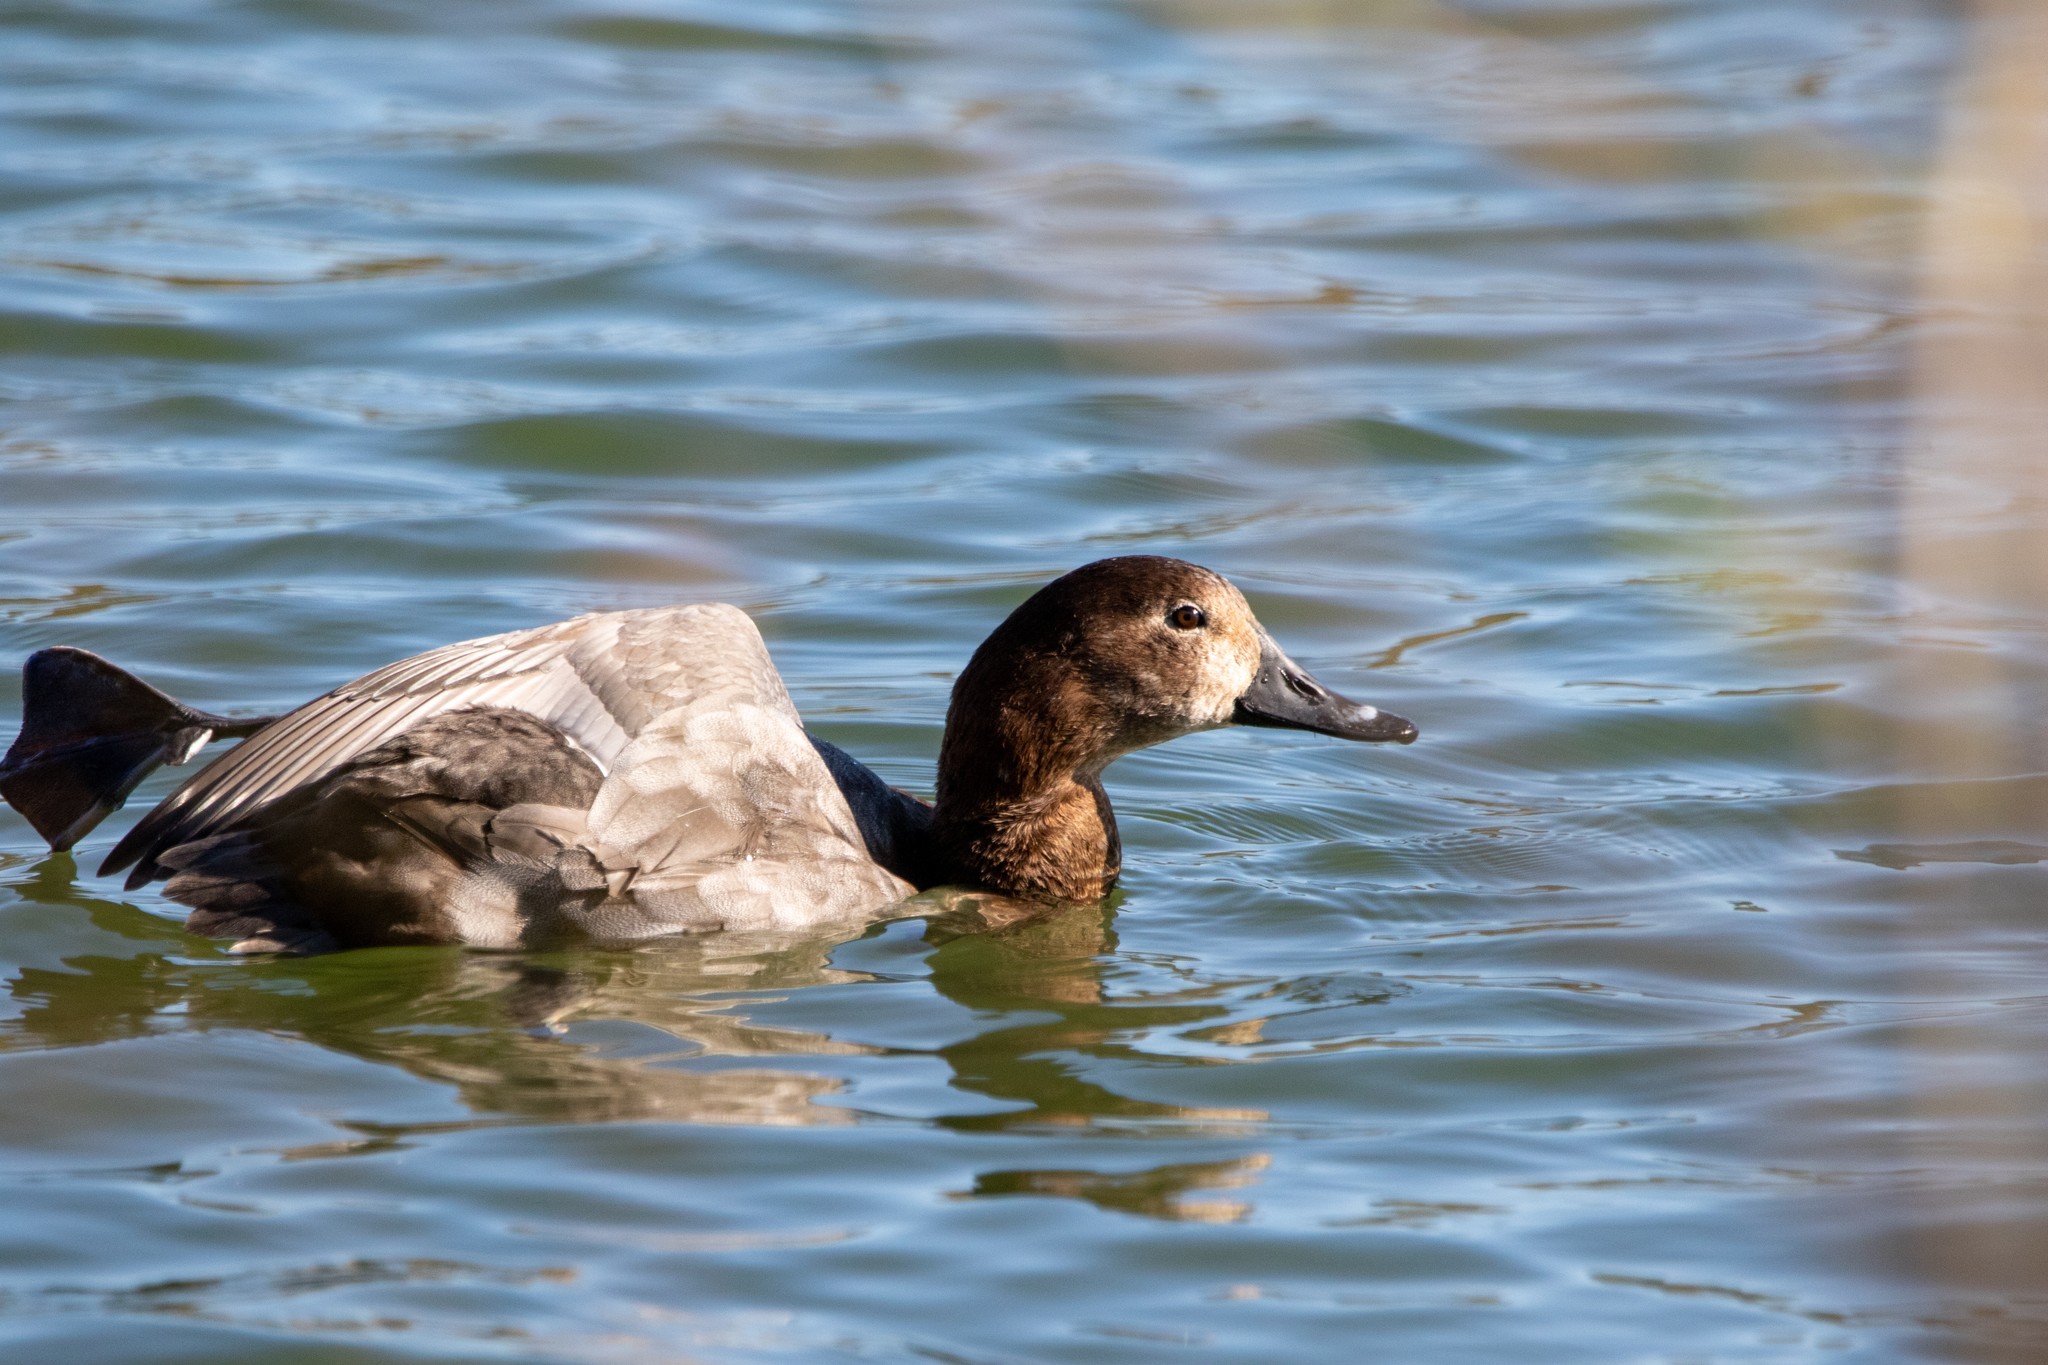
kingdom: Animalia
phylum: Chordata
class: Aves
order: Anseriformes
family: Anatidae
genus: Aythya
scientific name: Aythya ferina
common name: Common pochard
